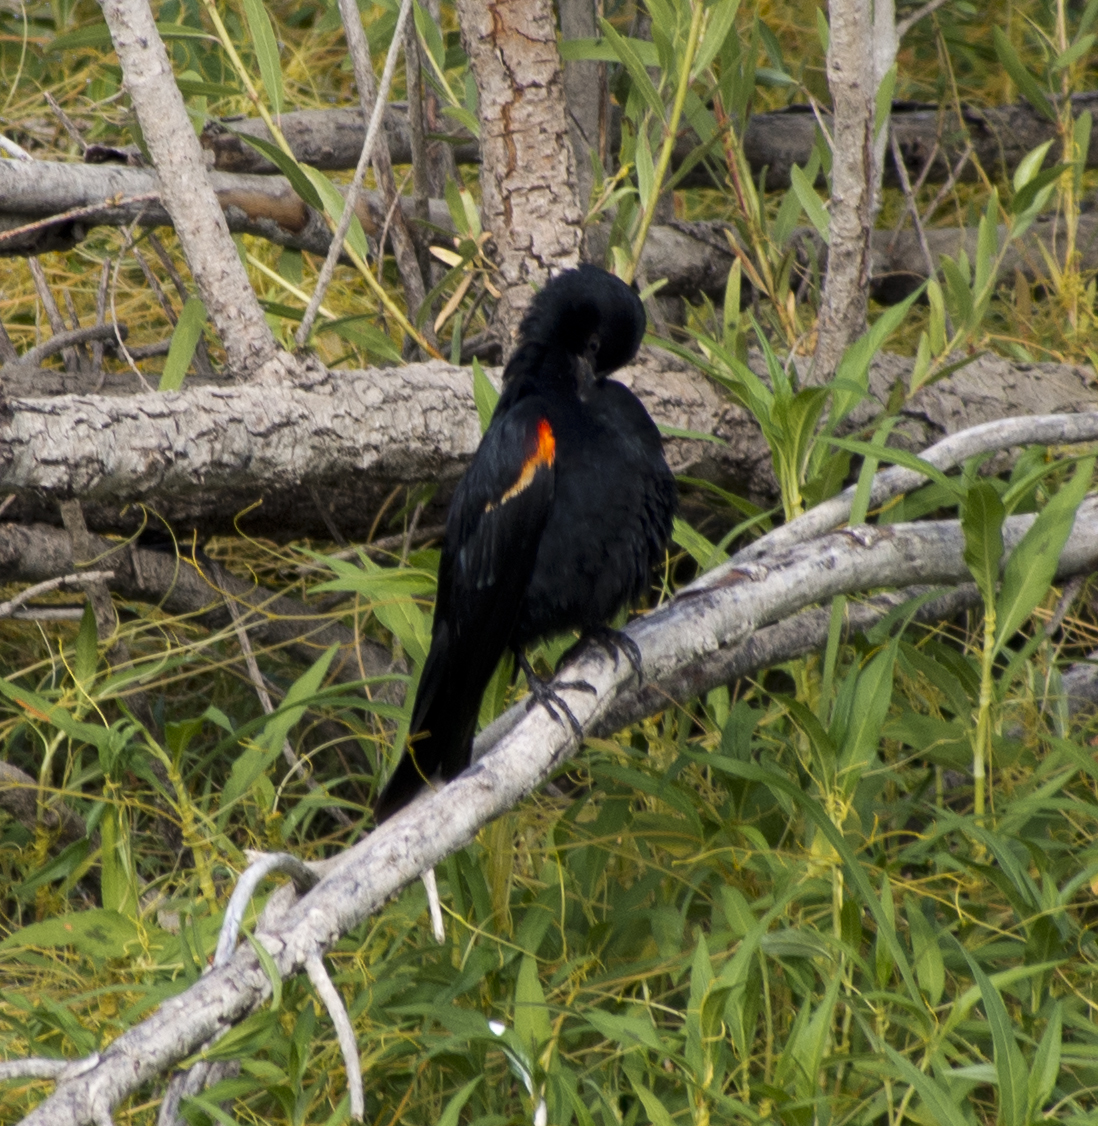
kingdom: Animalia
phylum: Chordata
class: Aves
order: Passeriformes
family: Icteridae
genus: Agelaius
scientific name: Agelaius phoeniceus
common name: Red-winged blackbird
